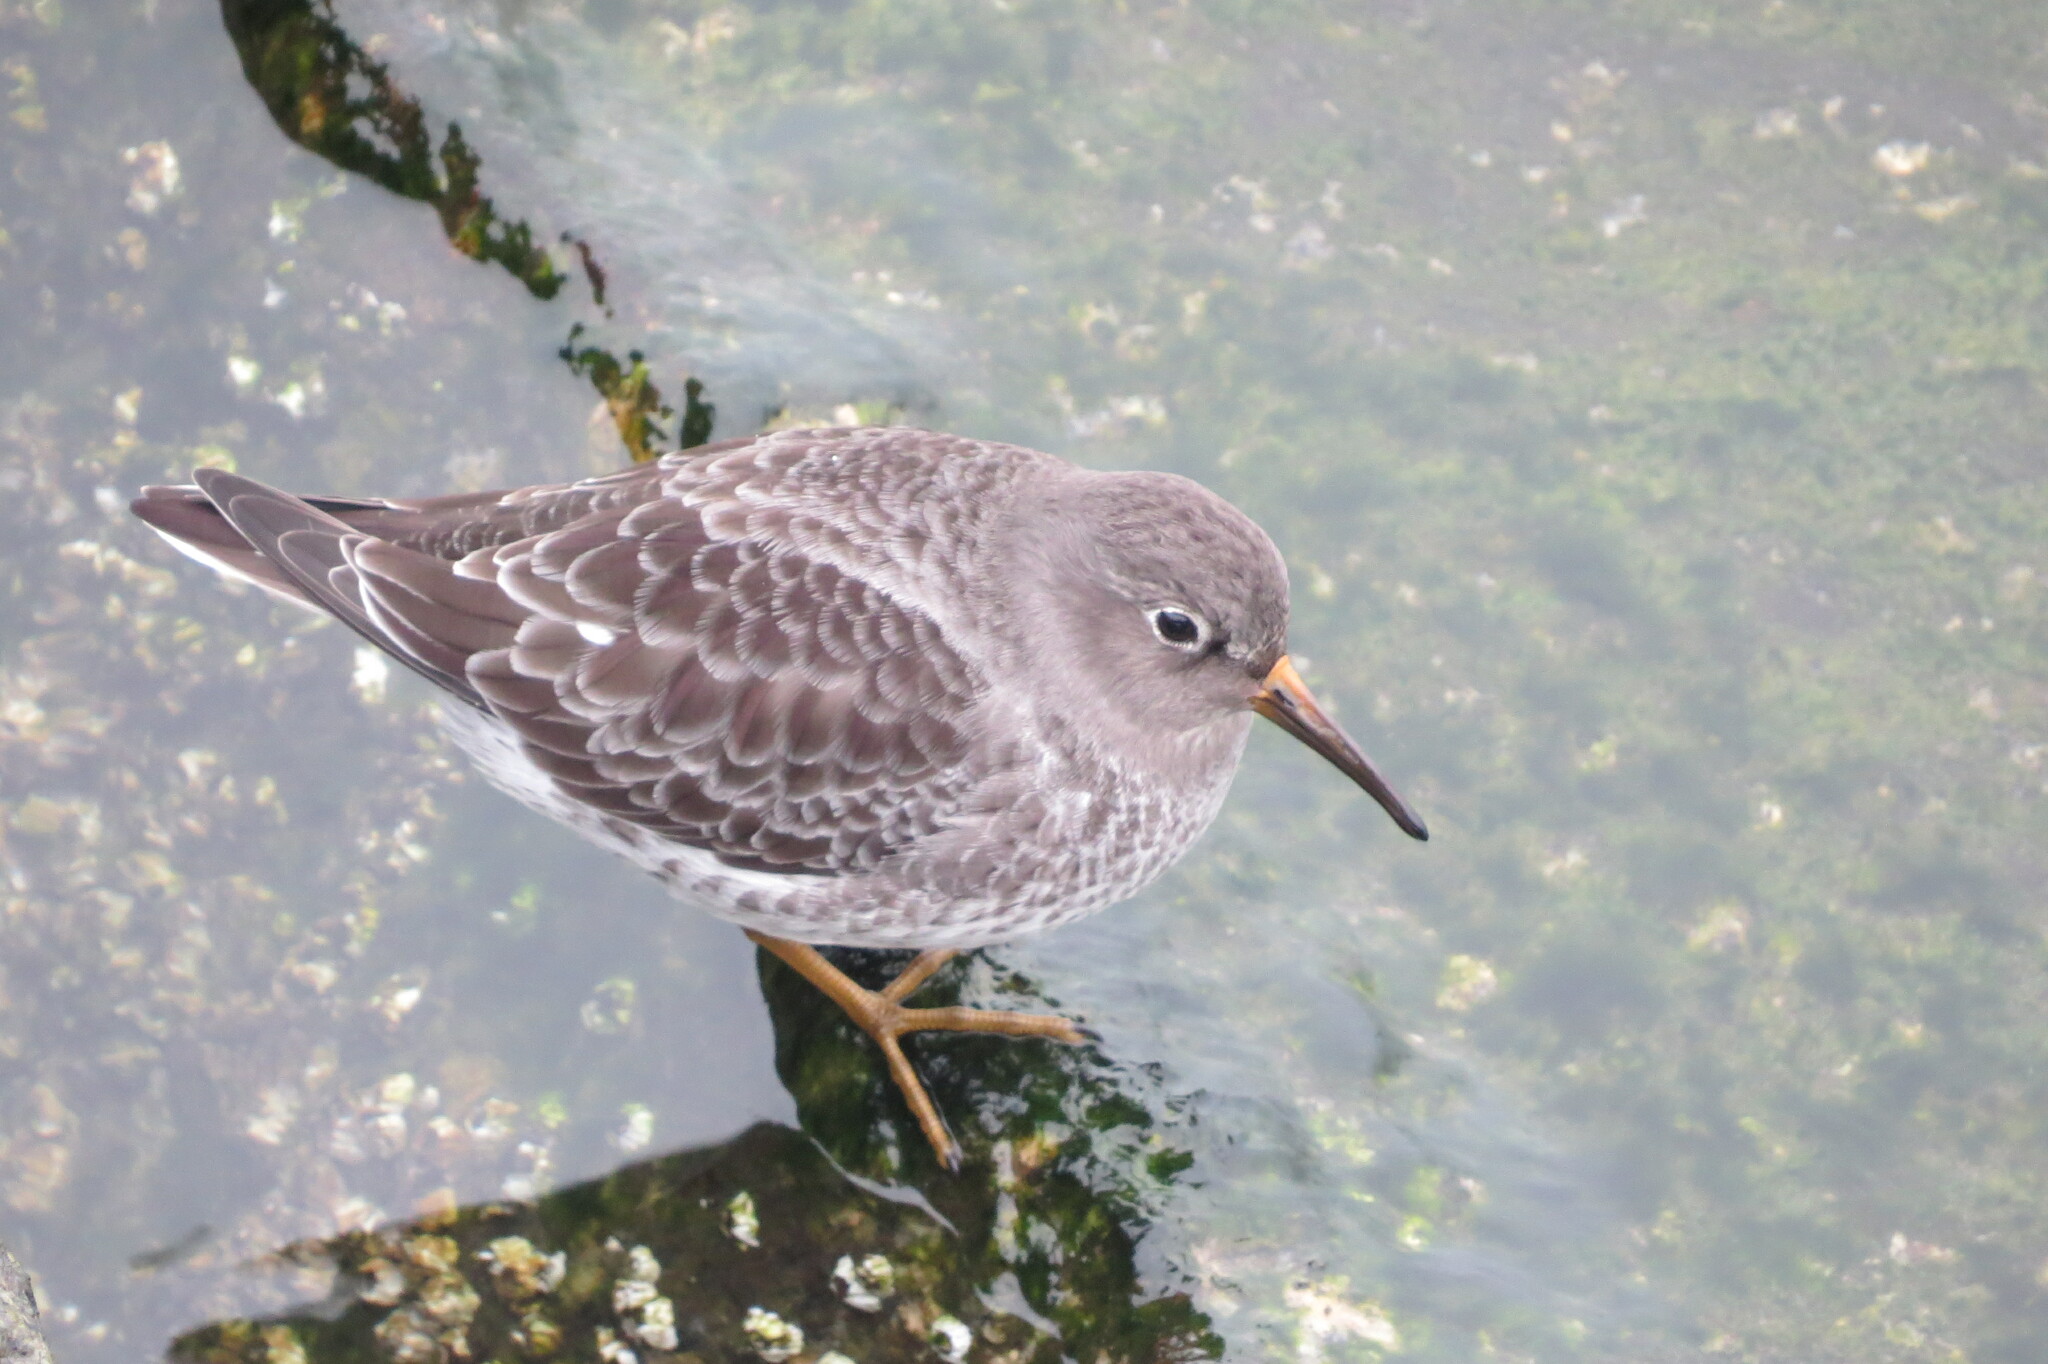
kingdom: Animalia
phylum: Chordata
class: Aves
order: Charadriiformes
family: Scolopacidae
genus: Calidris
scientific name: Calidris maritima
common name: Purple sandpiper
